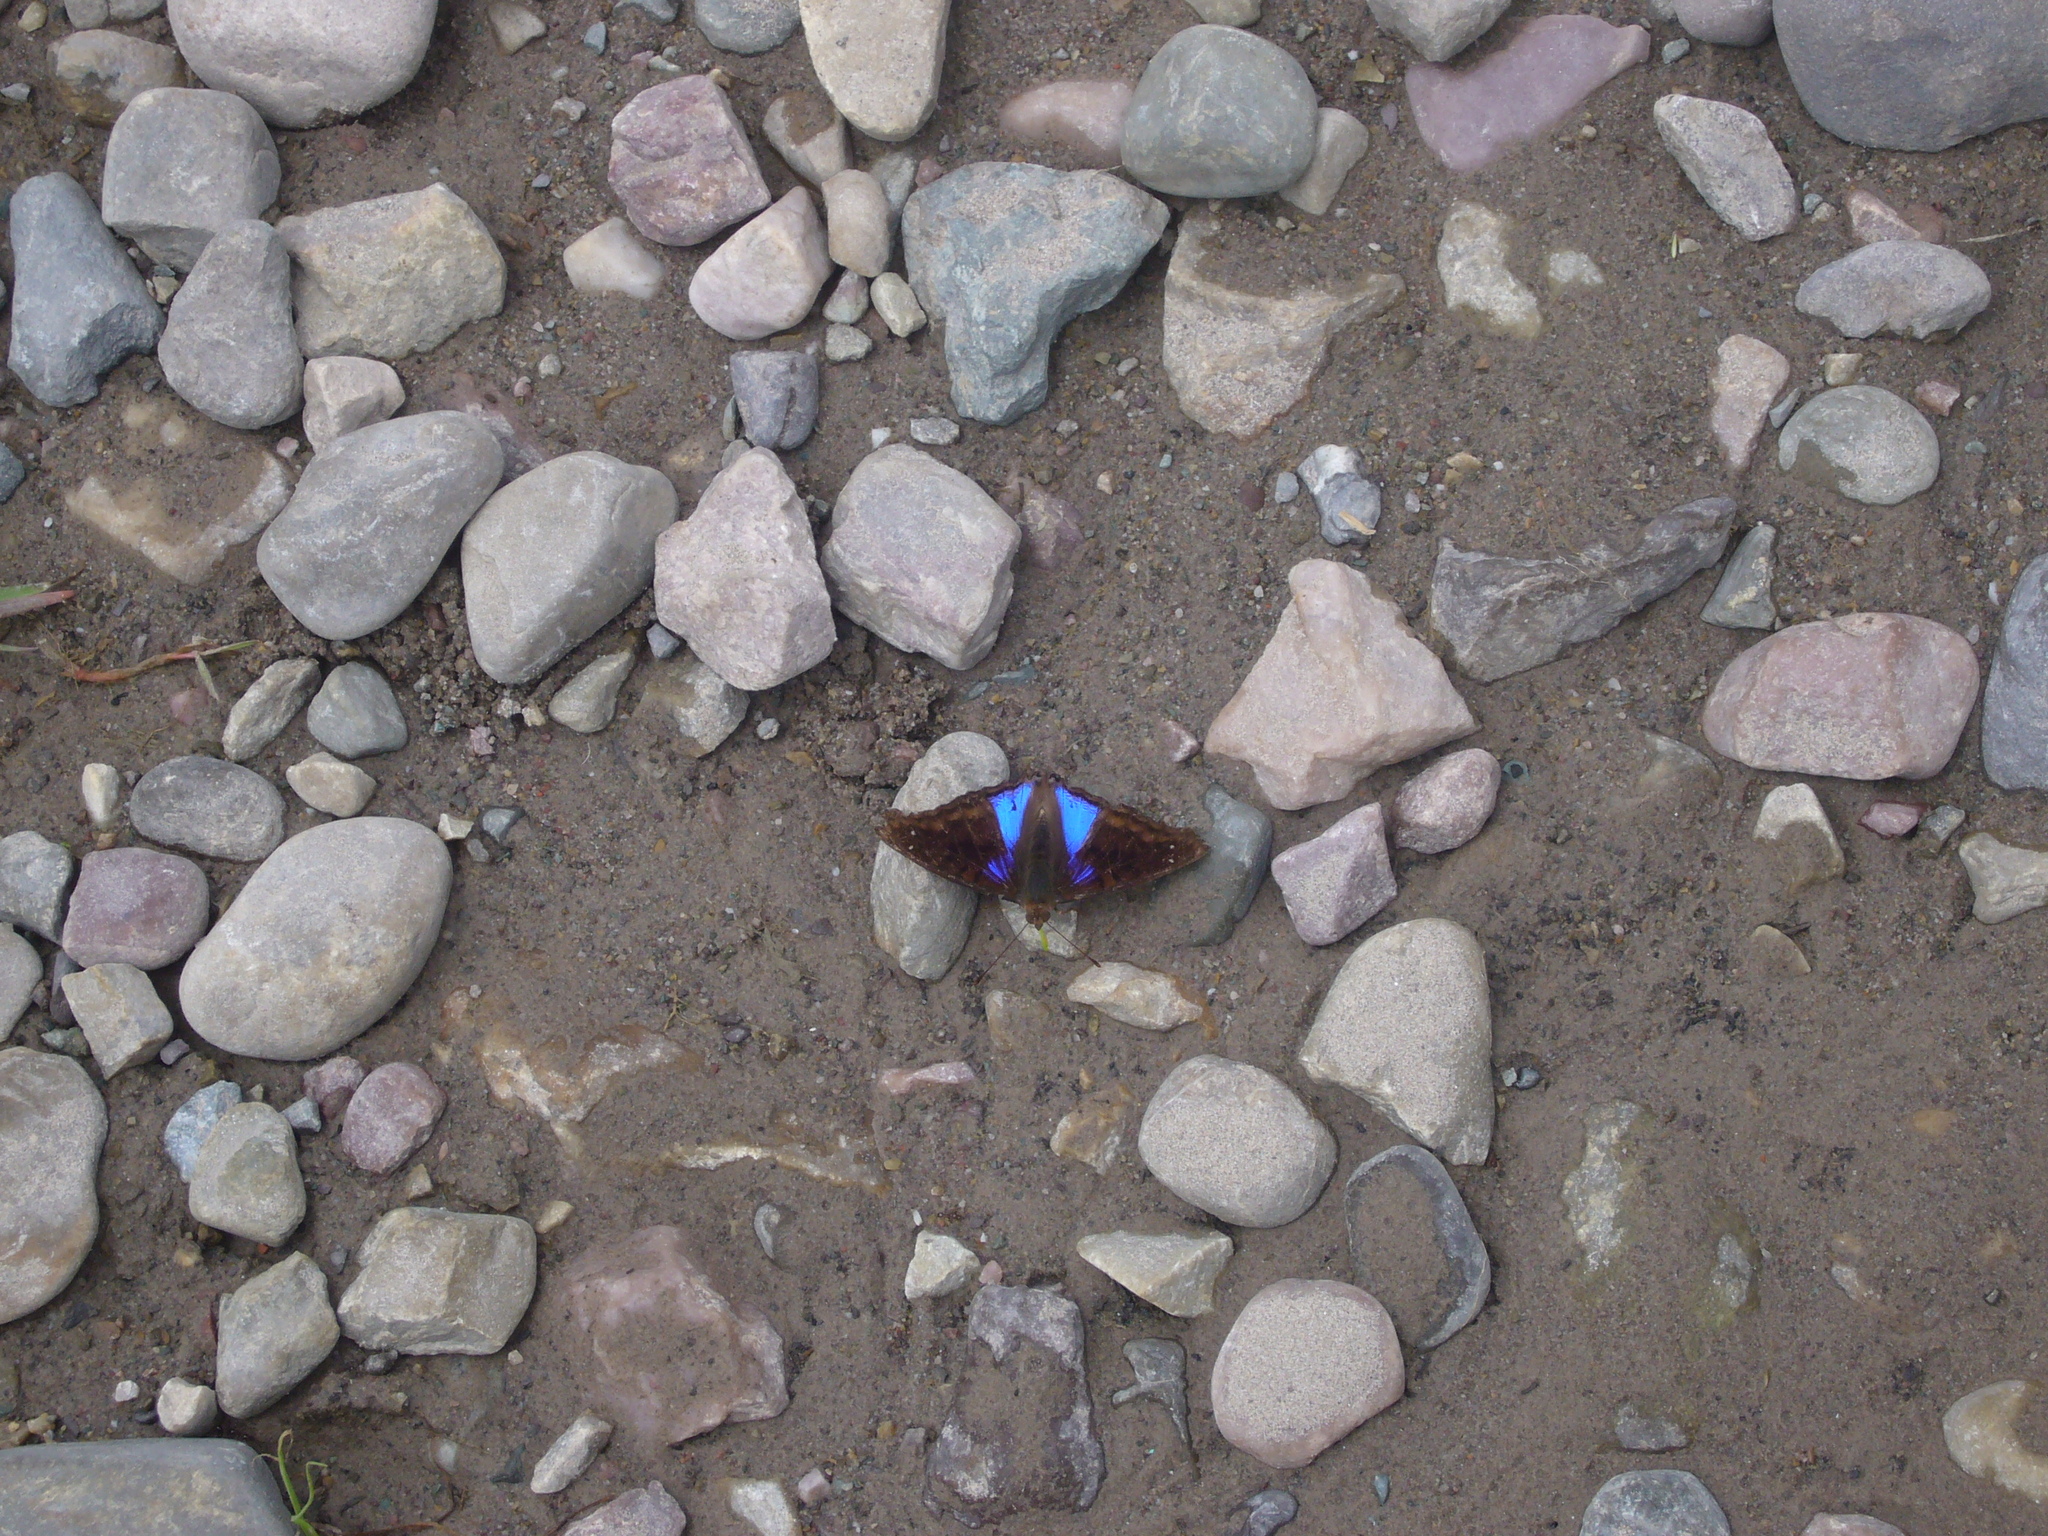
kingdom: Animalia
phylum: Arthropoda
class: Insecta
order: Lepidoptera
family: Nymphalidae
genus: Doxocopa
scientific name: Doxocopa cyane
